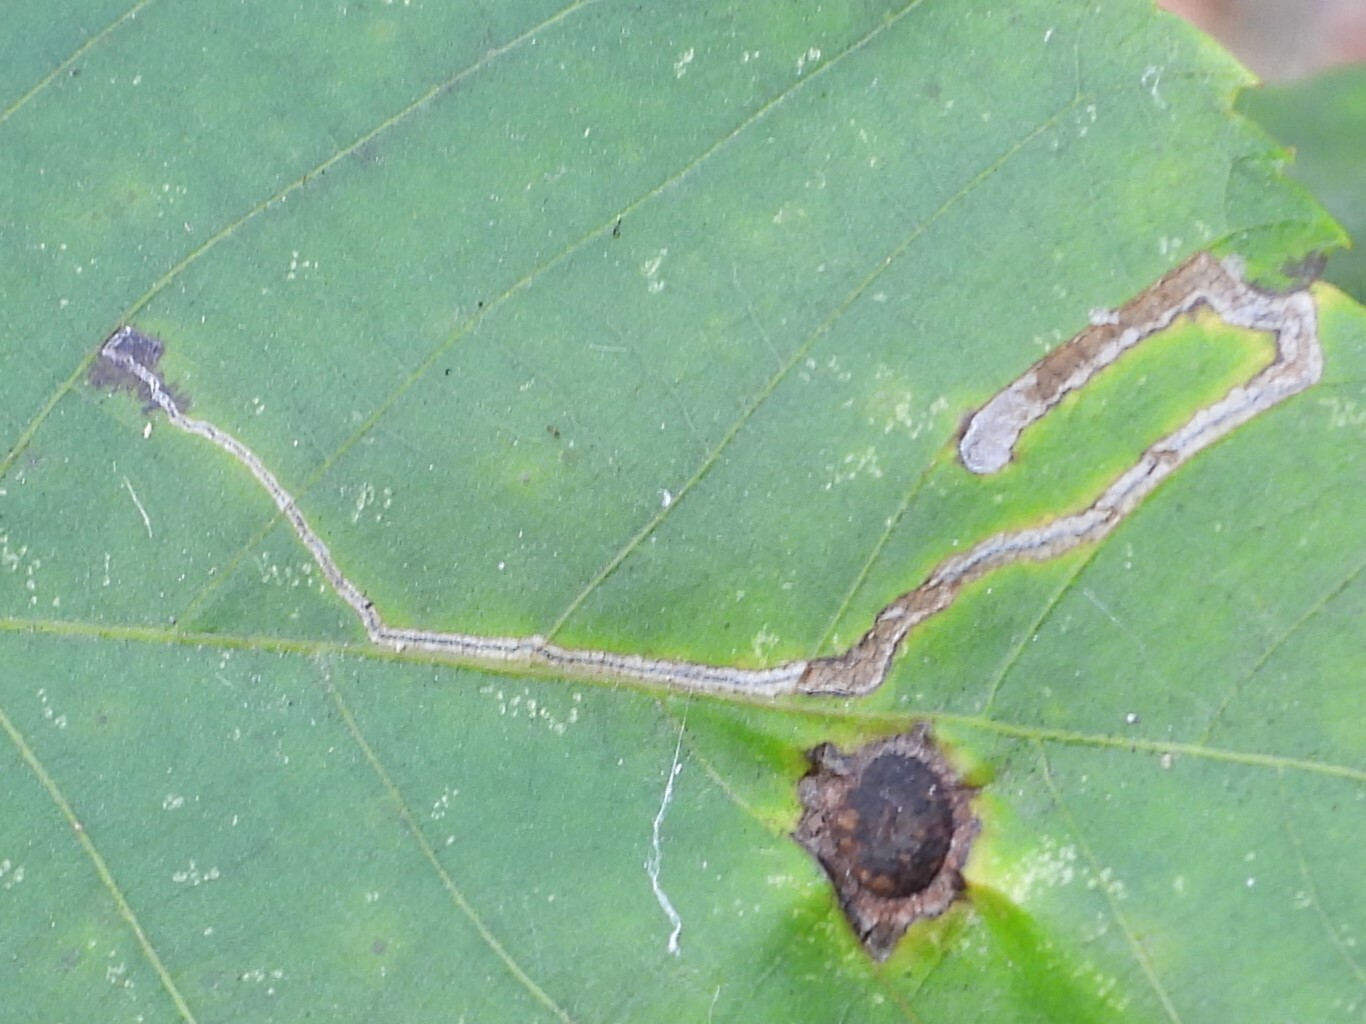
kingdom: Animalia
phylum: Arthropoda
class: Insecta
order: Lepidoptera
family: Nepticulidae
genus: Stigmella
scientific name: Stigmella caryaefoliella
